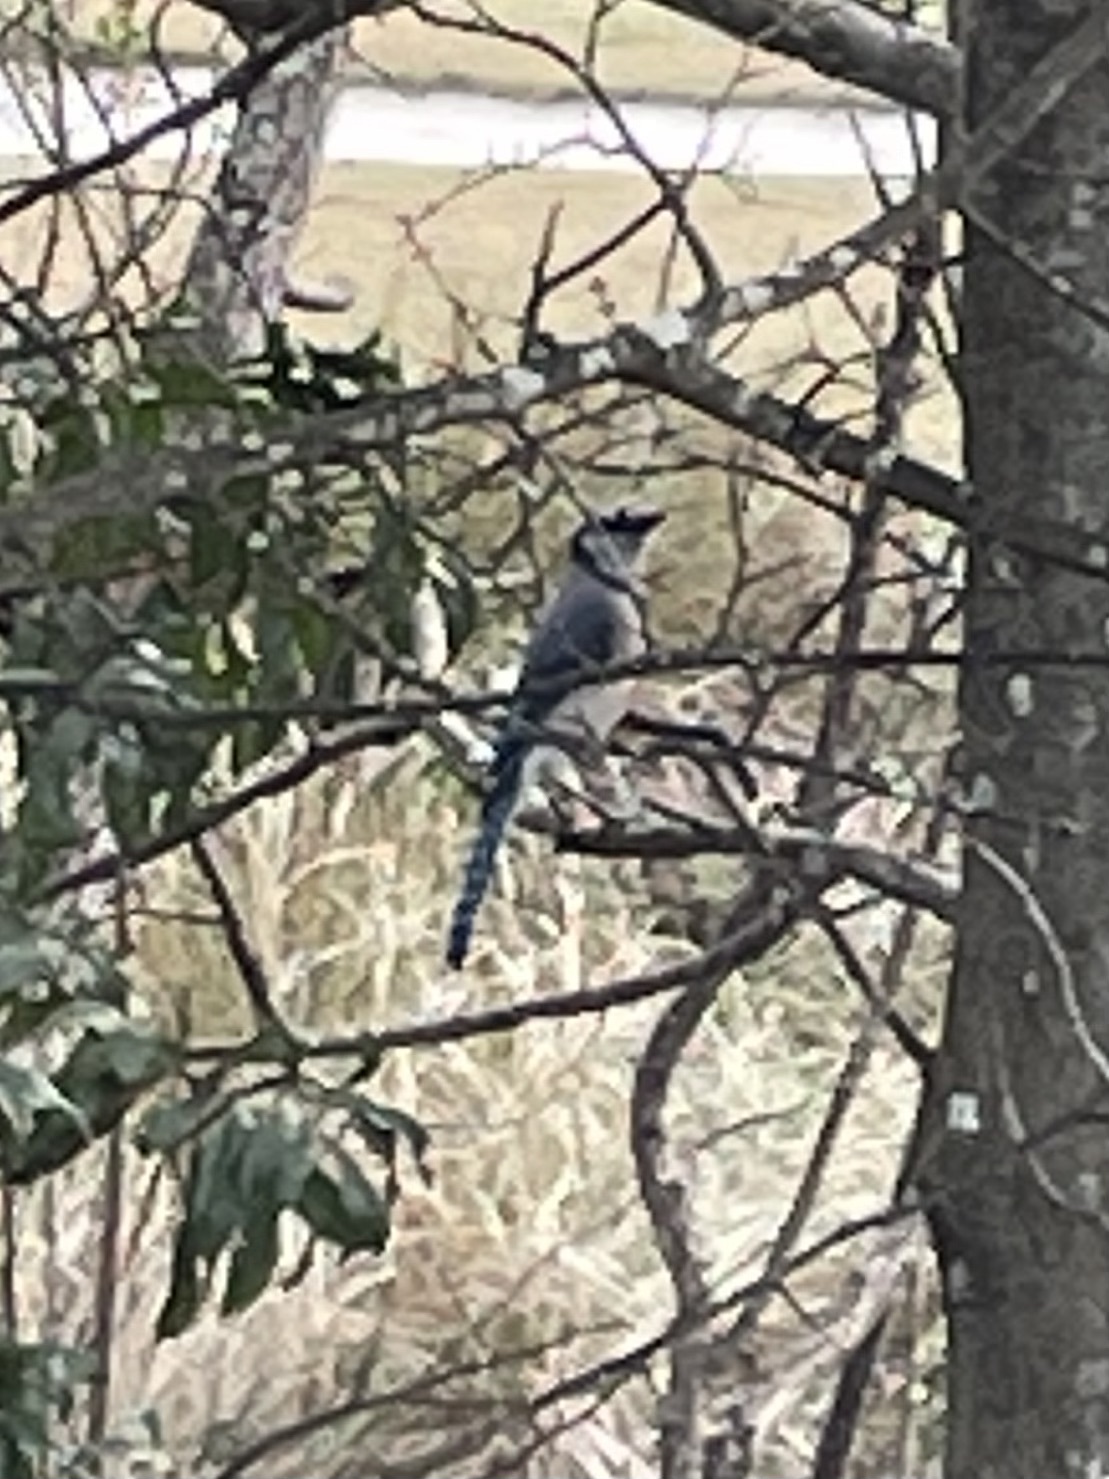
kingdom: Animalia
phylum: Chordata
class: Aves
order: Passeriformes
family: Corvidae
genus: Cyanocitta
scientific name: Cyanocitta cristata
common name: Blue jay
